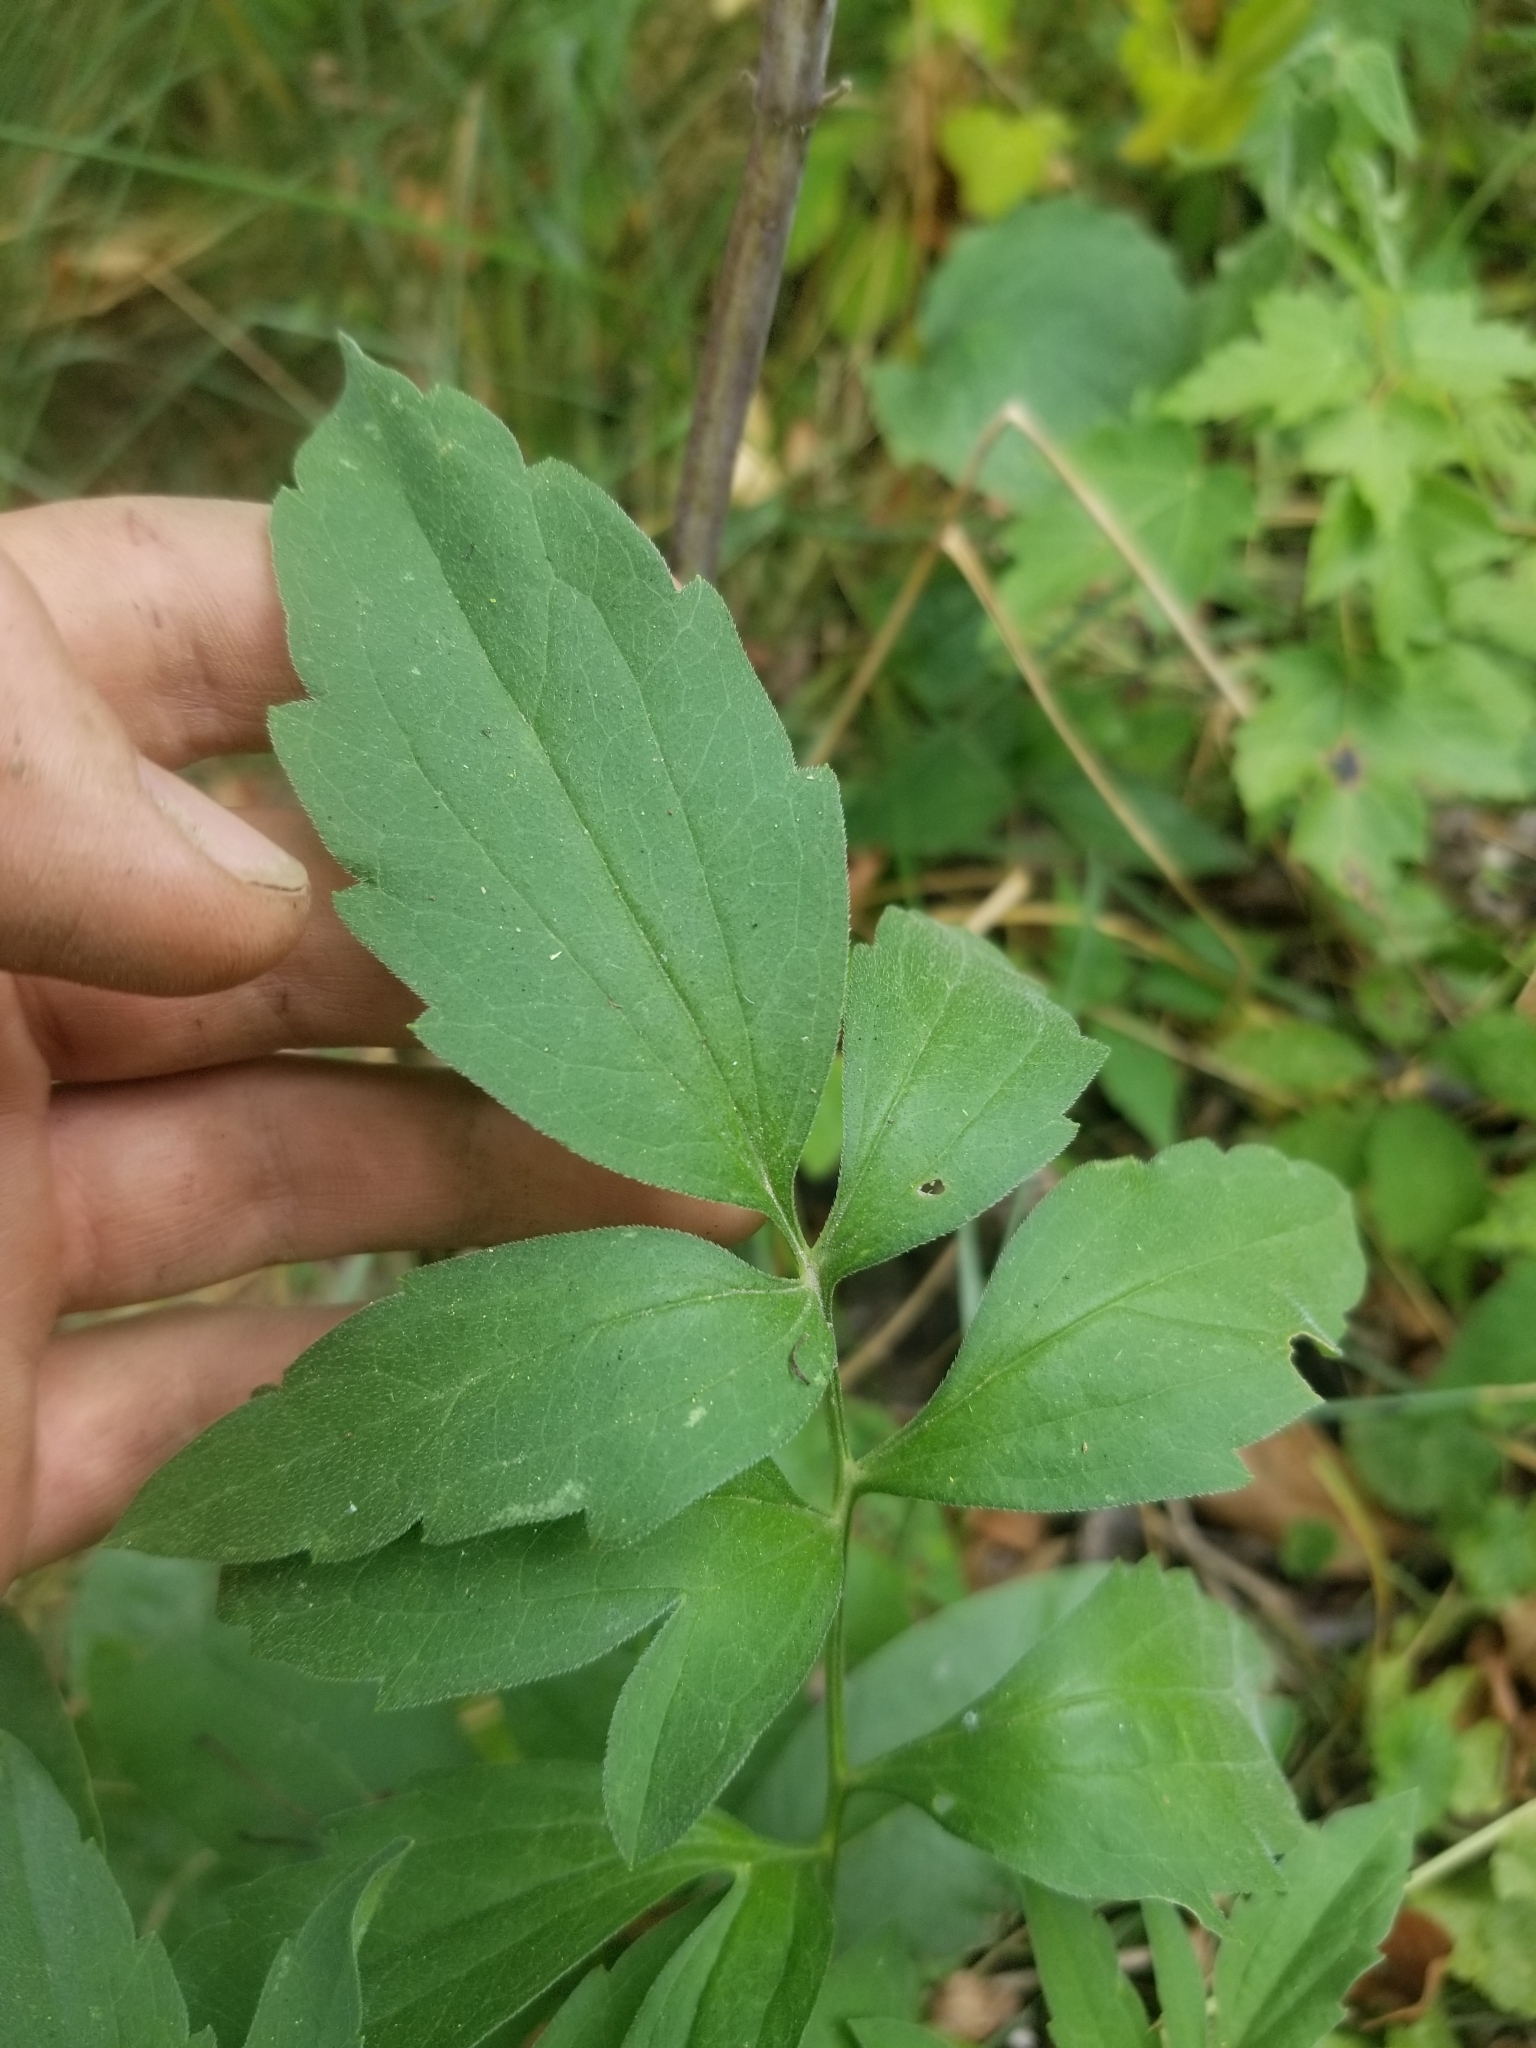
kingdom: Plantae
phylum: Tracheophyta
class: Magnoliopsida
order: Asterales
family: Asteraceae
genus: Rudbeckia
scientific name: Rudbeckia laciniata
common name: Coneflower
